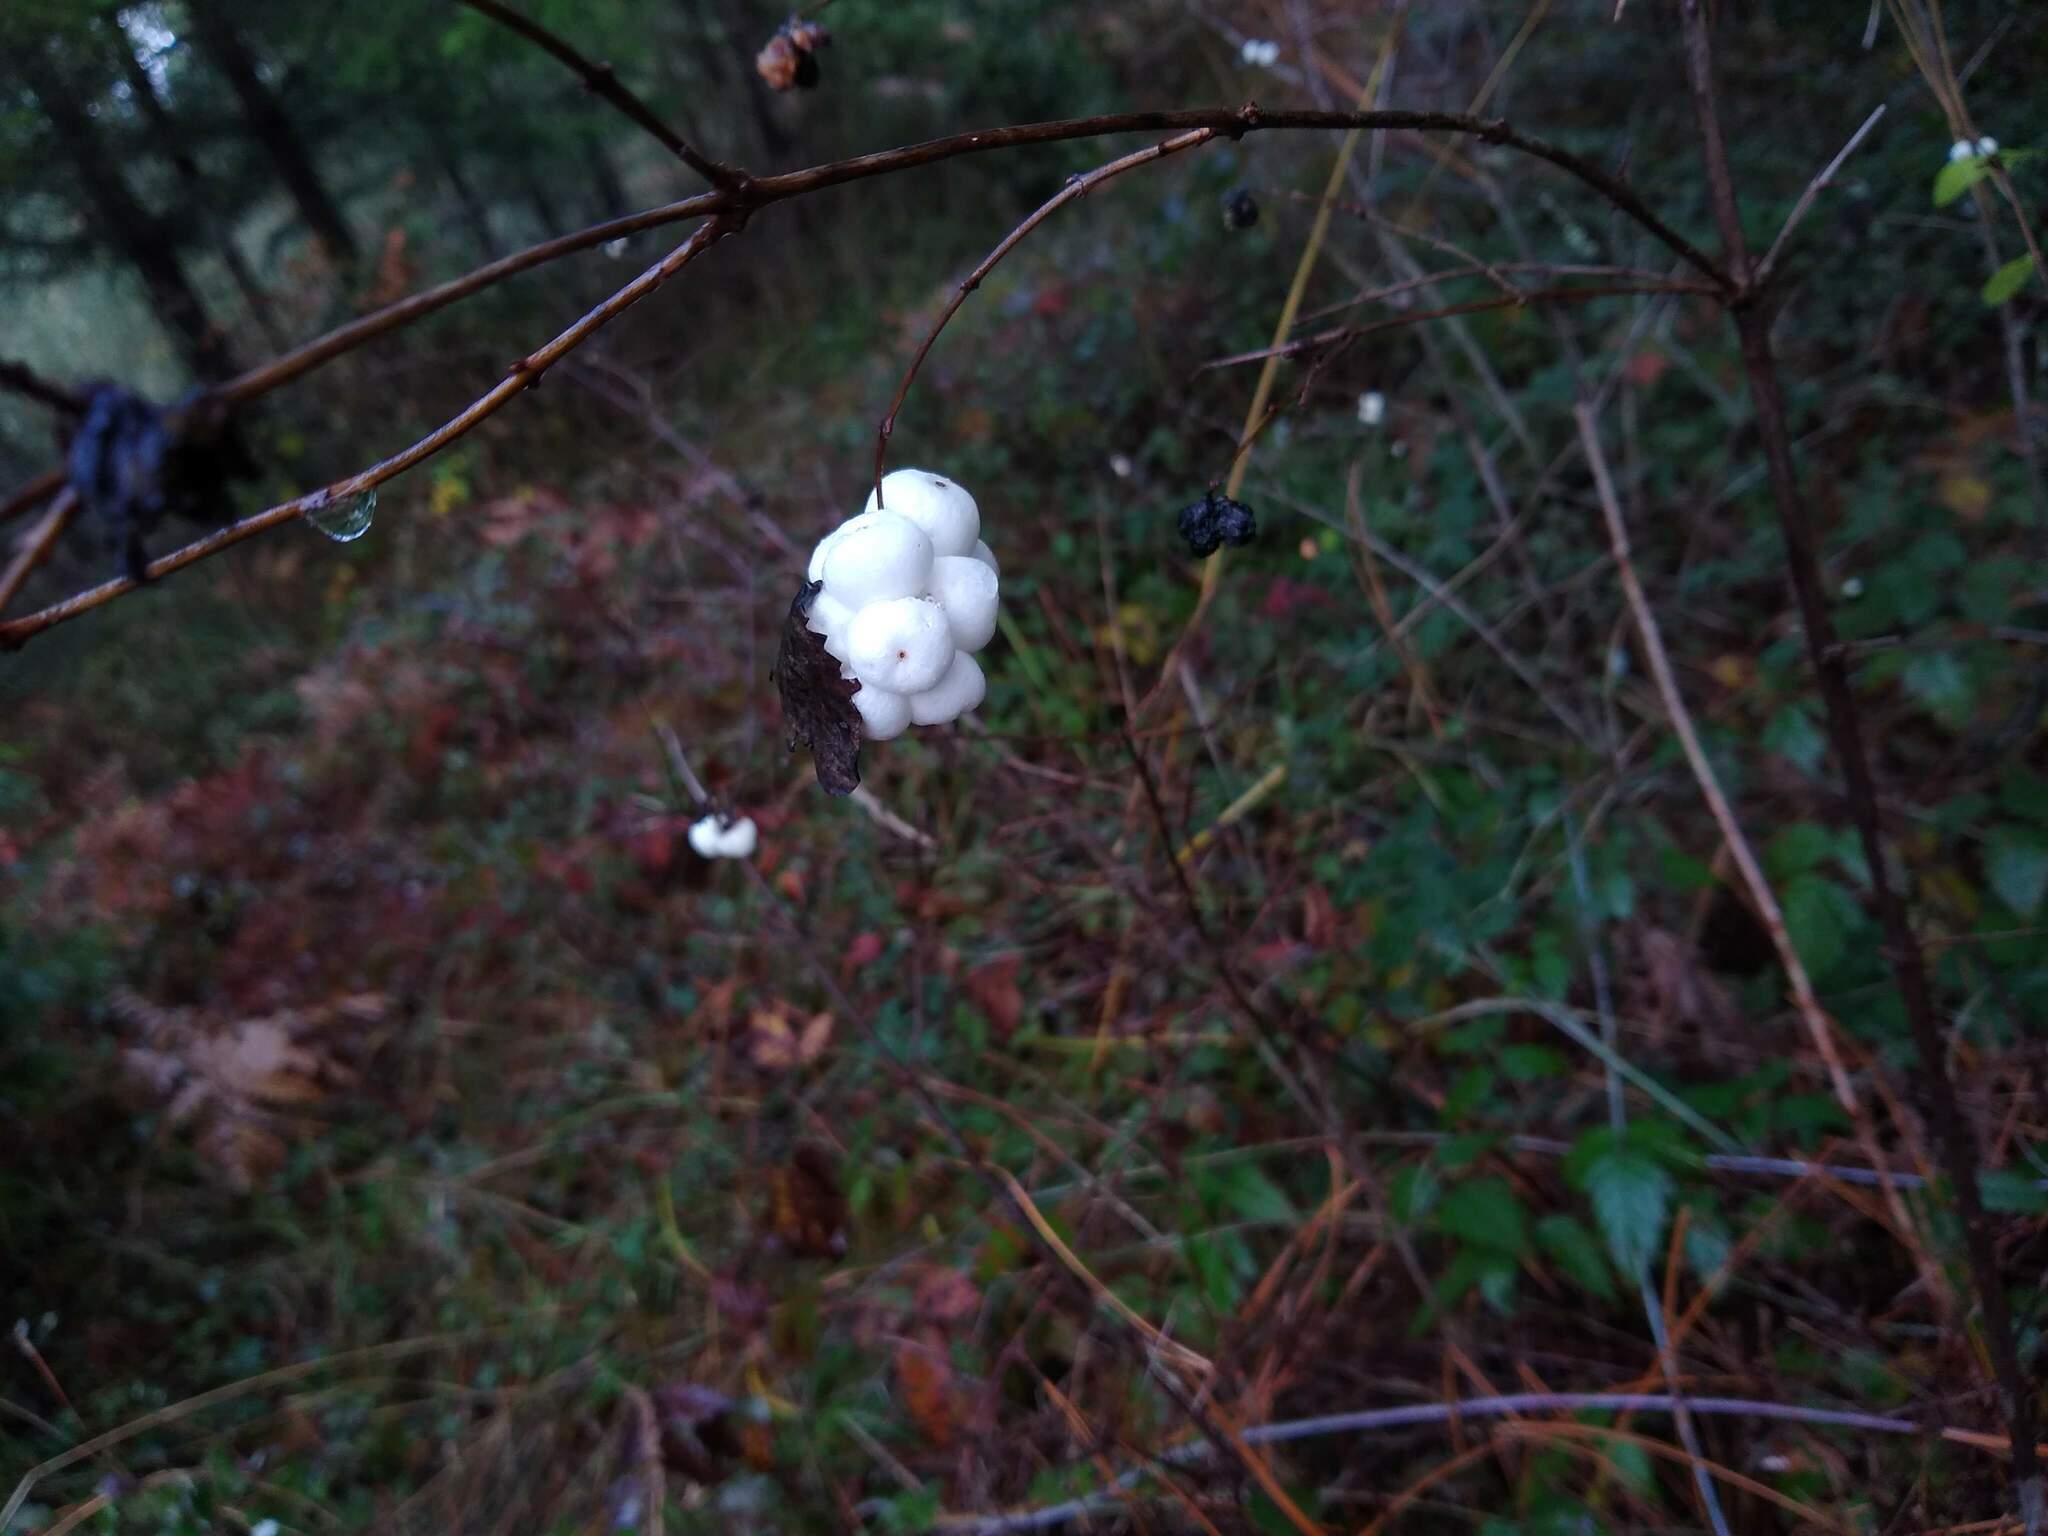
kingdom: Plantae
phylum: Tracheophyta
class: Magnoliopsida
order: Dipsacales
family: Caprifoliaceae
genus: Symphoricarpos
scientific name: Symphoricarpos albus
